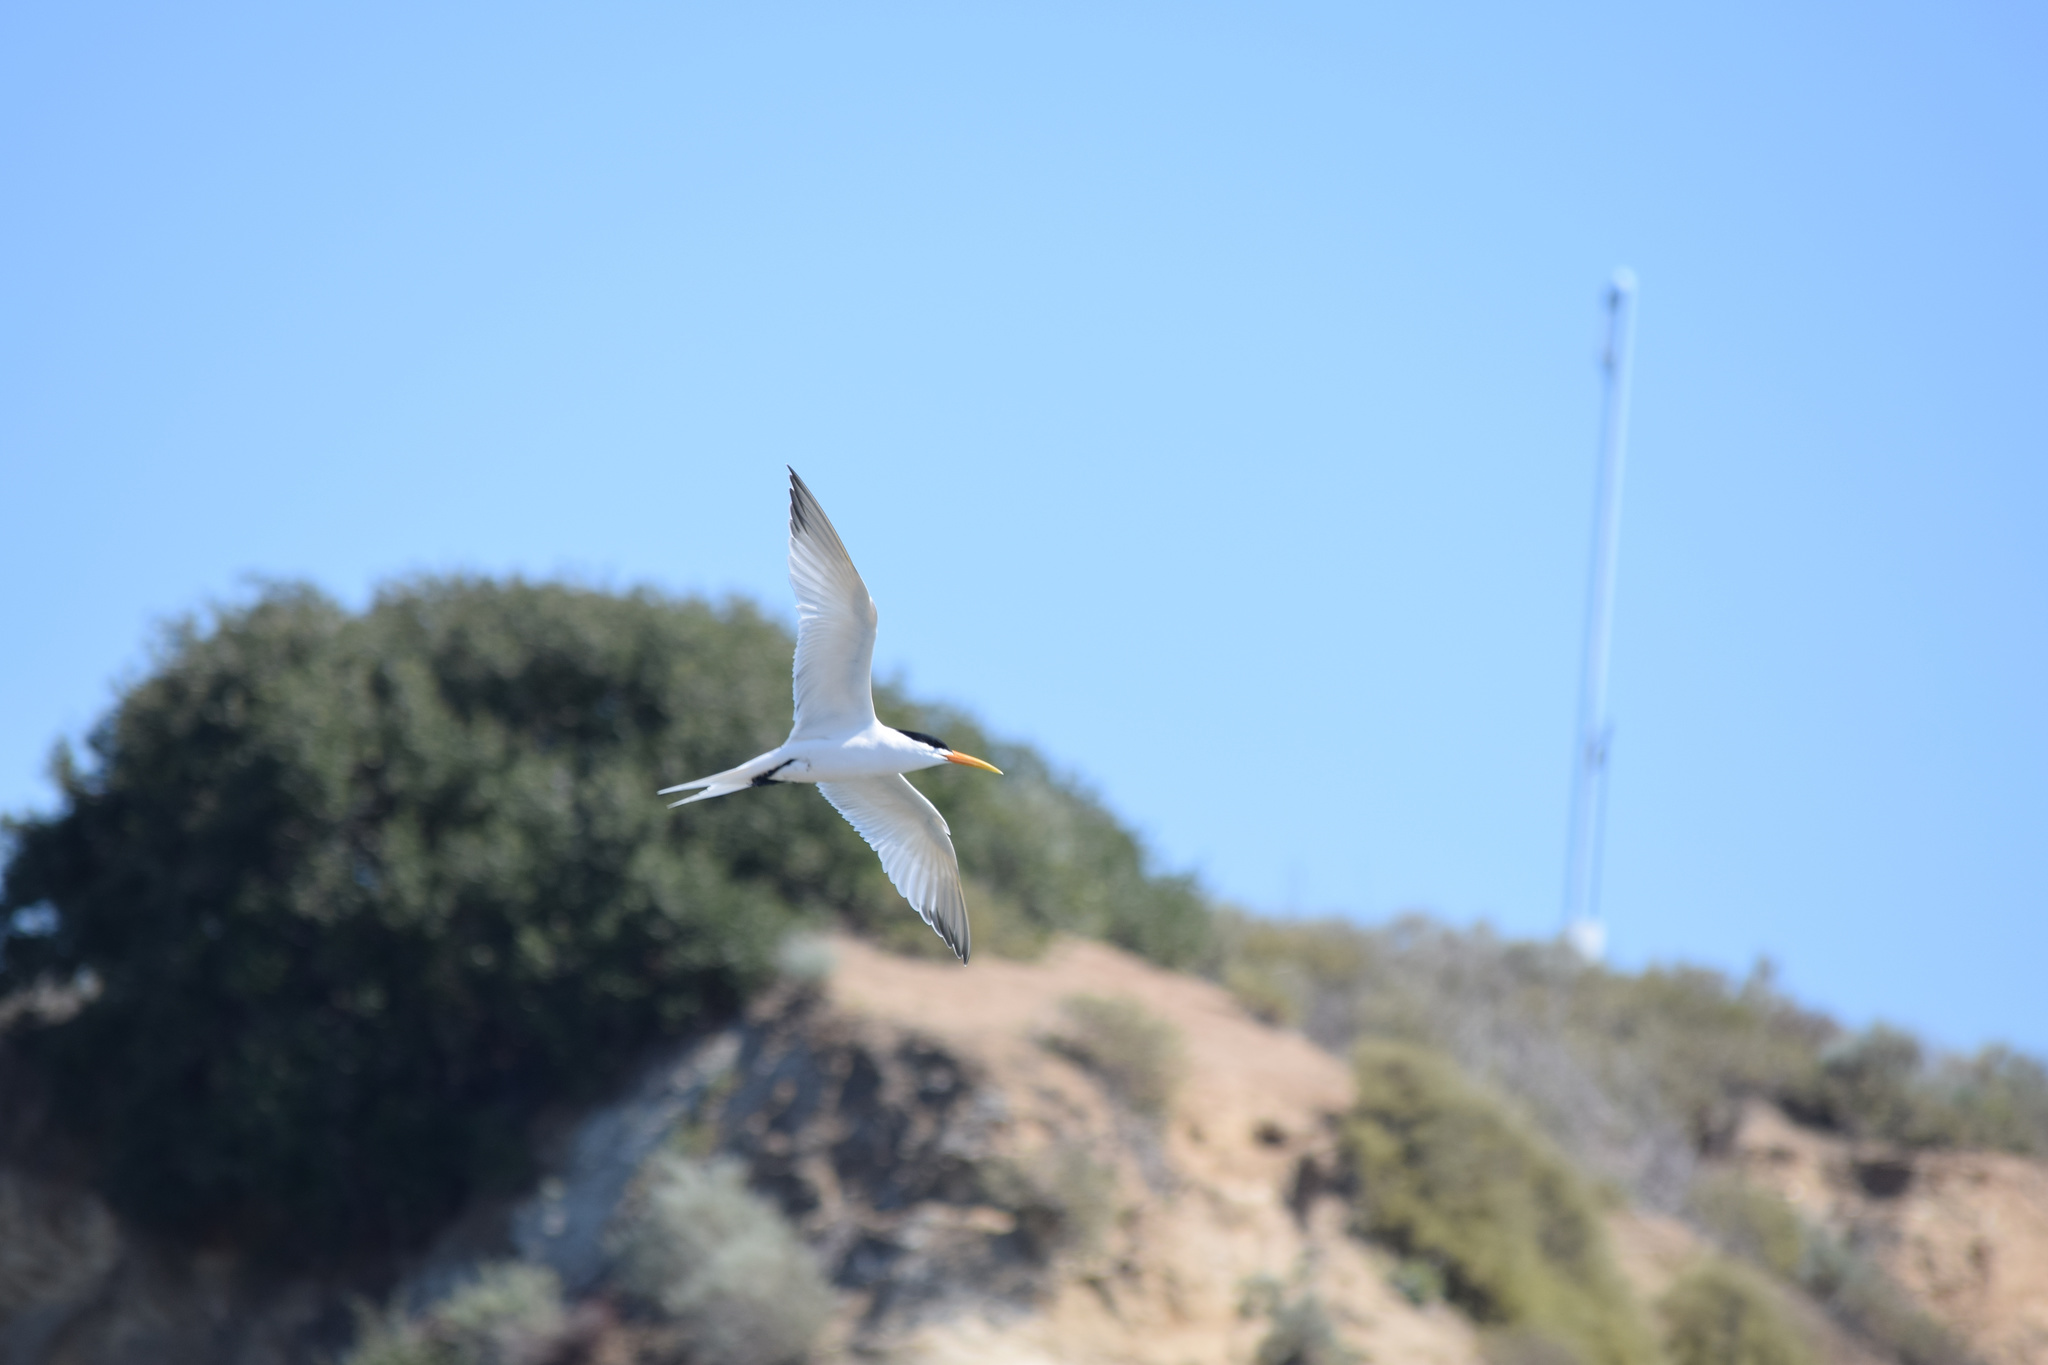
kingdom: Animalia
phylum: Chordata
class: Aves
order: Charadriiformes
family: Laridae
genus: Thalasseus
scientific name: Thalasseus elegans
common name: Elegant tern
